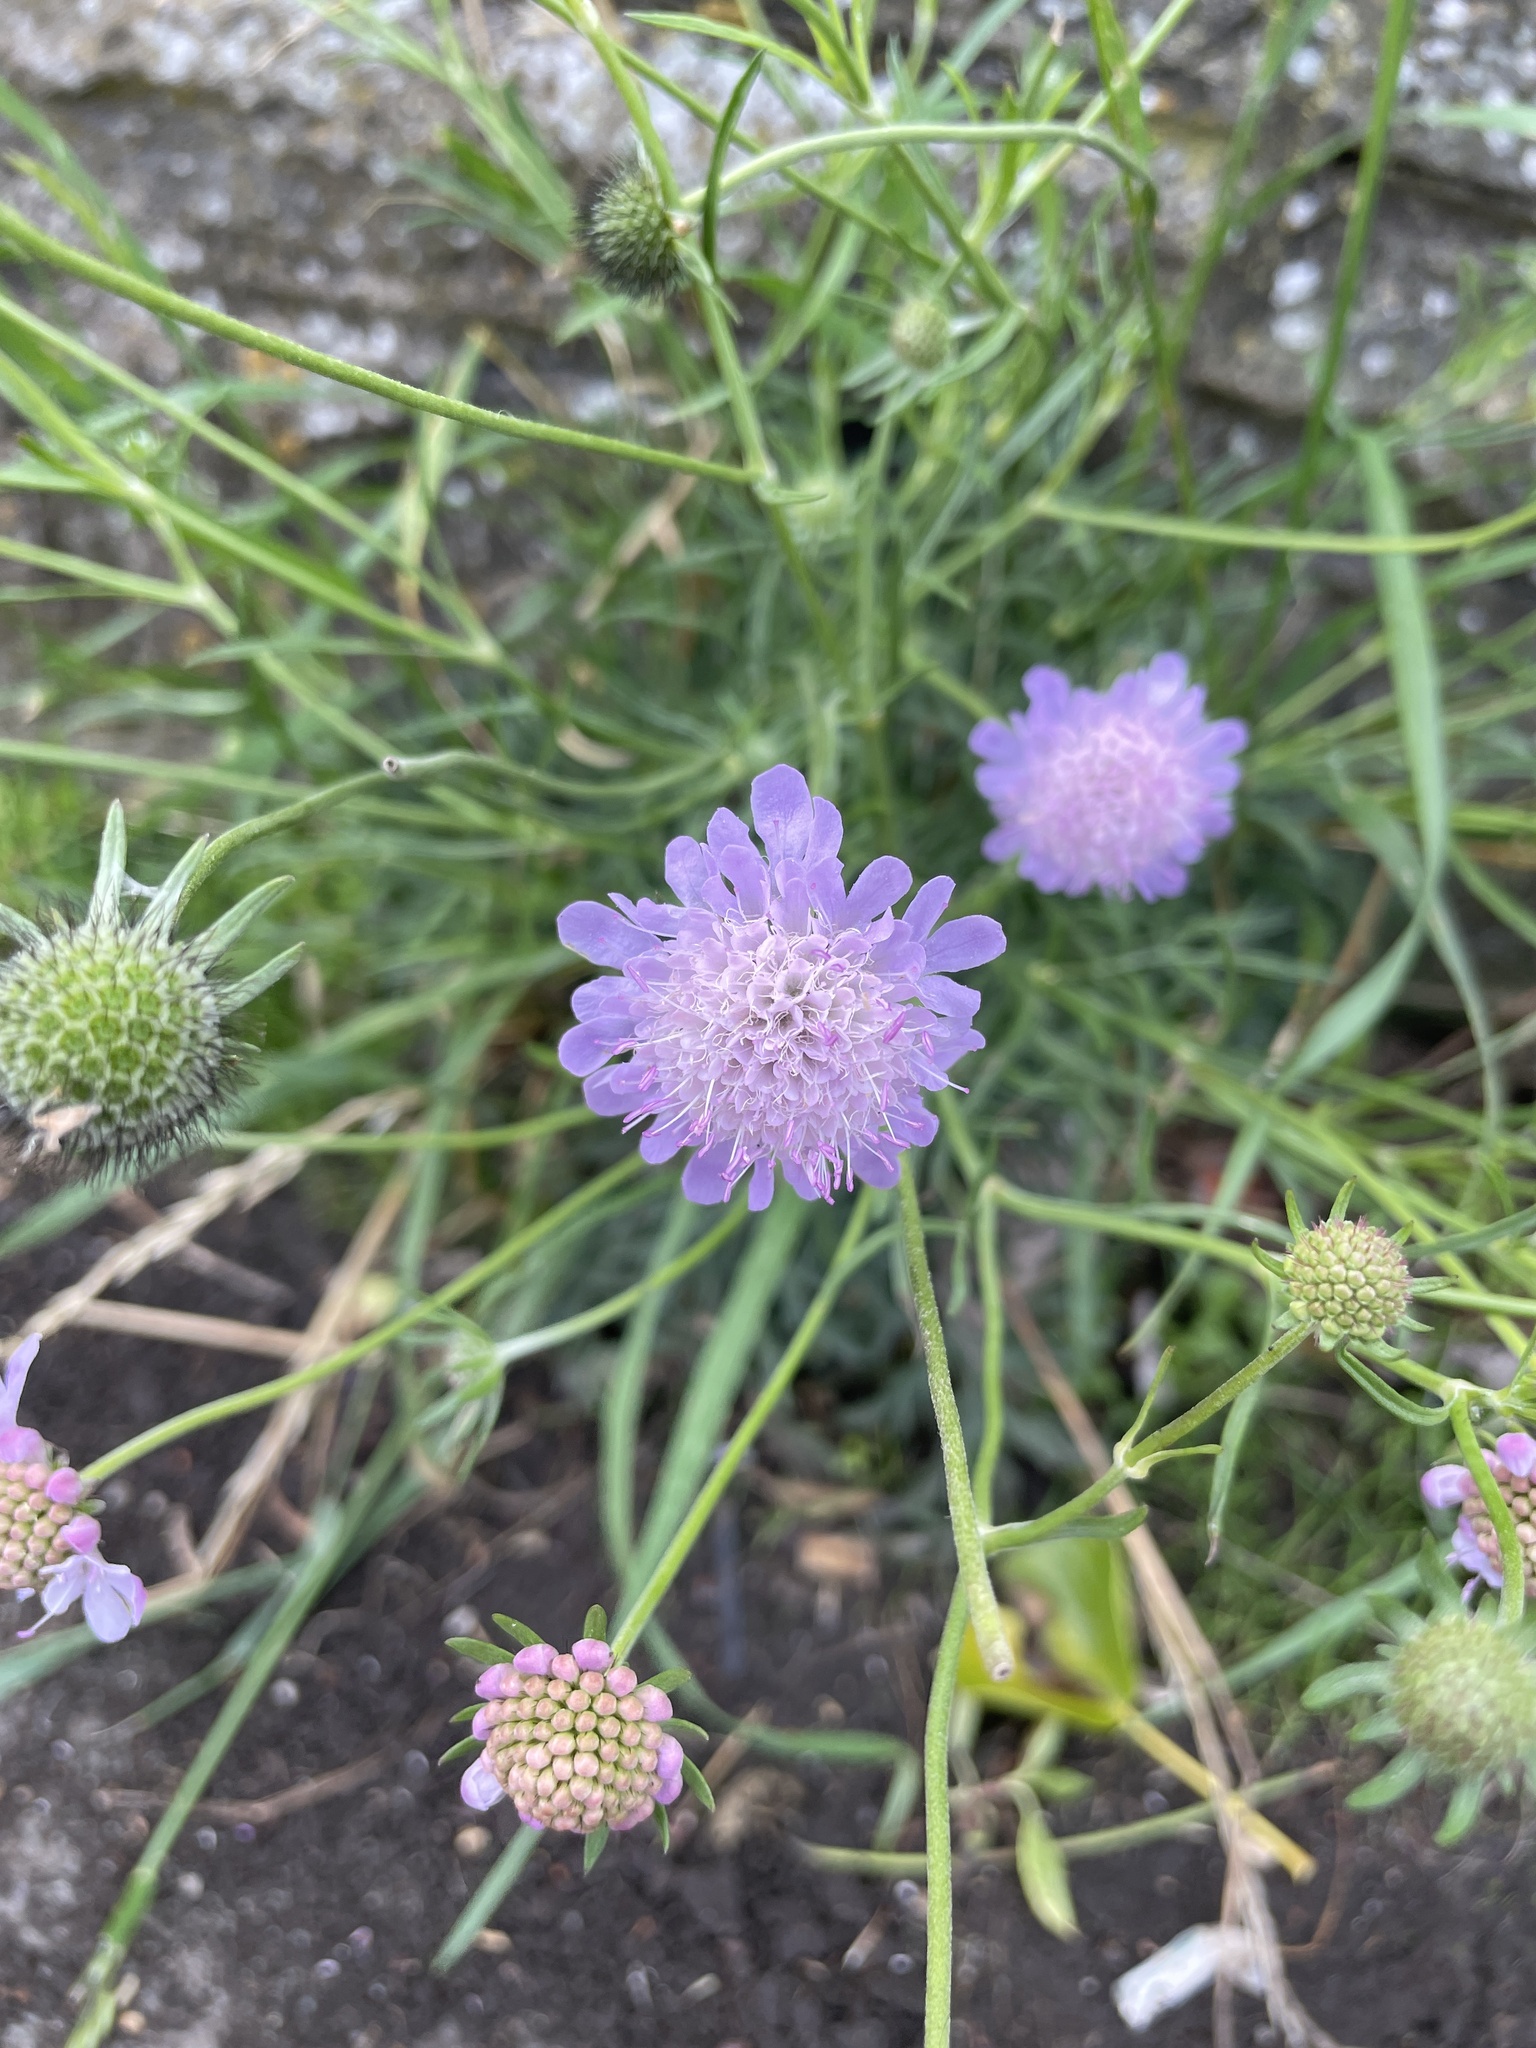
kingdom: Plantae
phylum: Tracheophyta
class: Magnoliopsida
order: Dipsacales
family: Caprifoliaceae
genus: Scabiosa
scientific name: Scabiosa columbaria
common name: Small scabious
